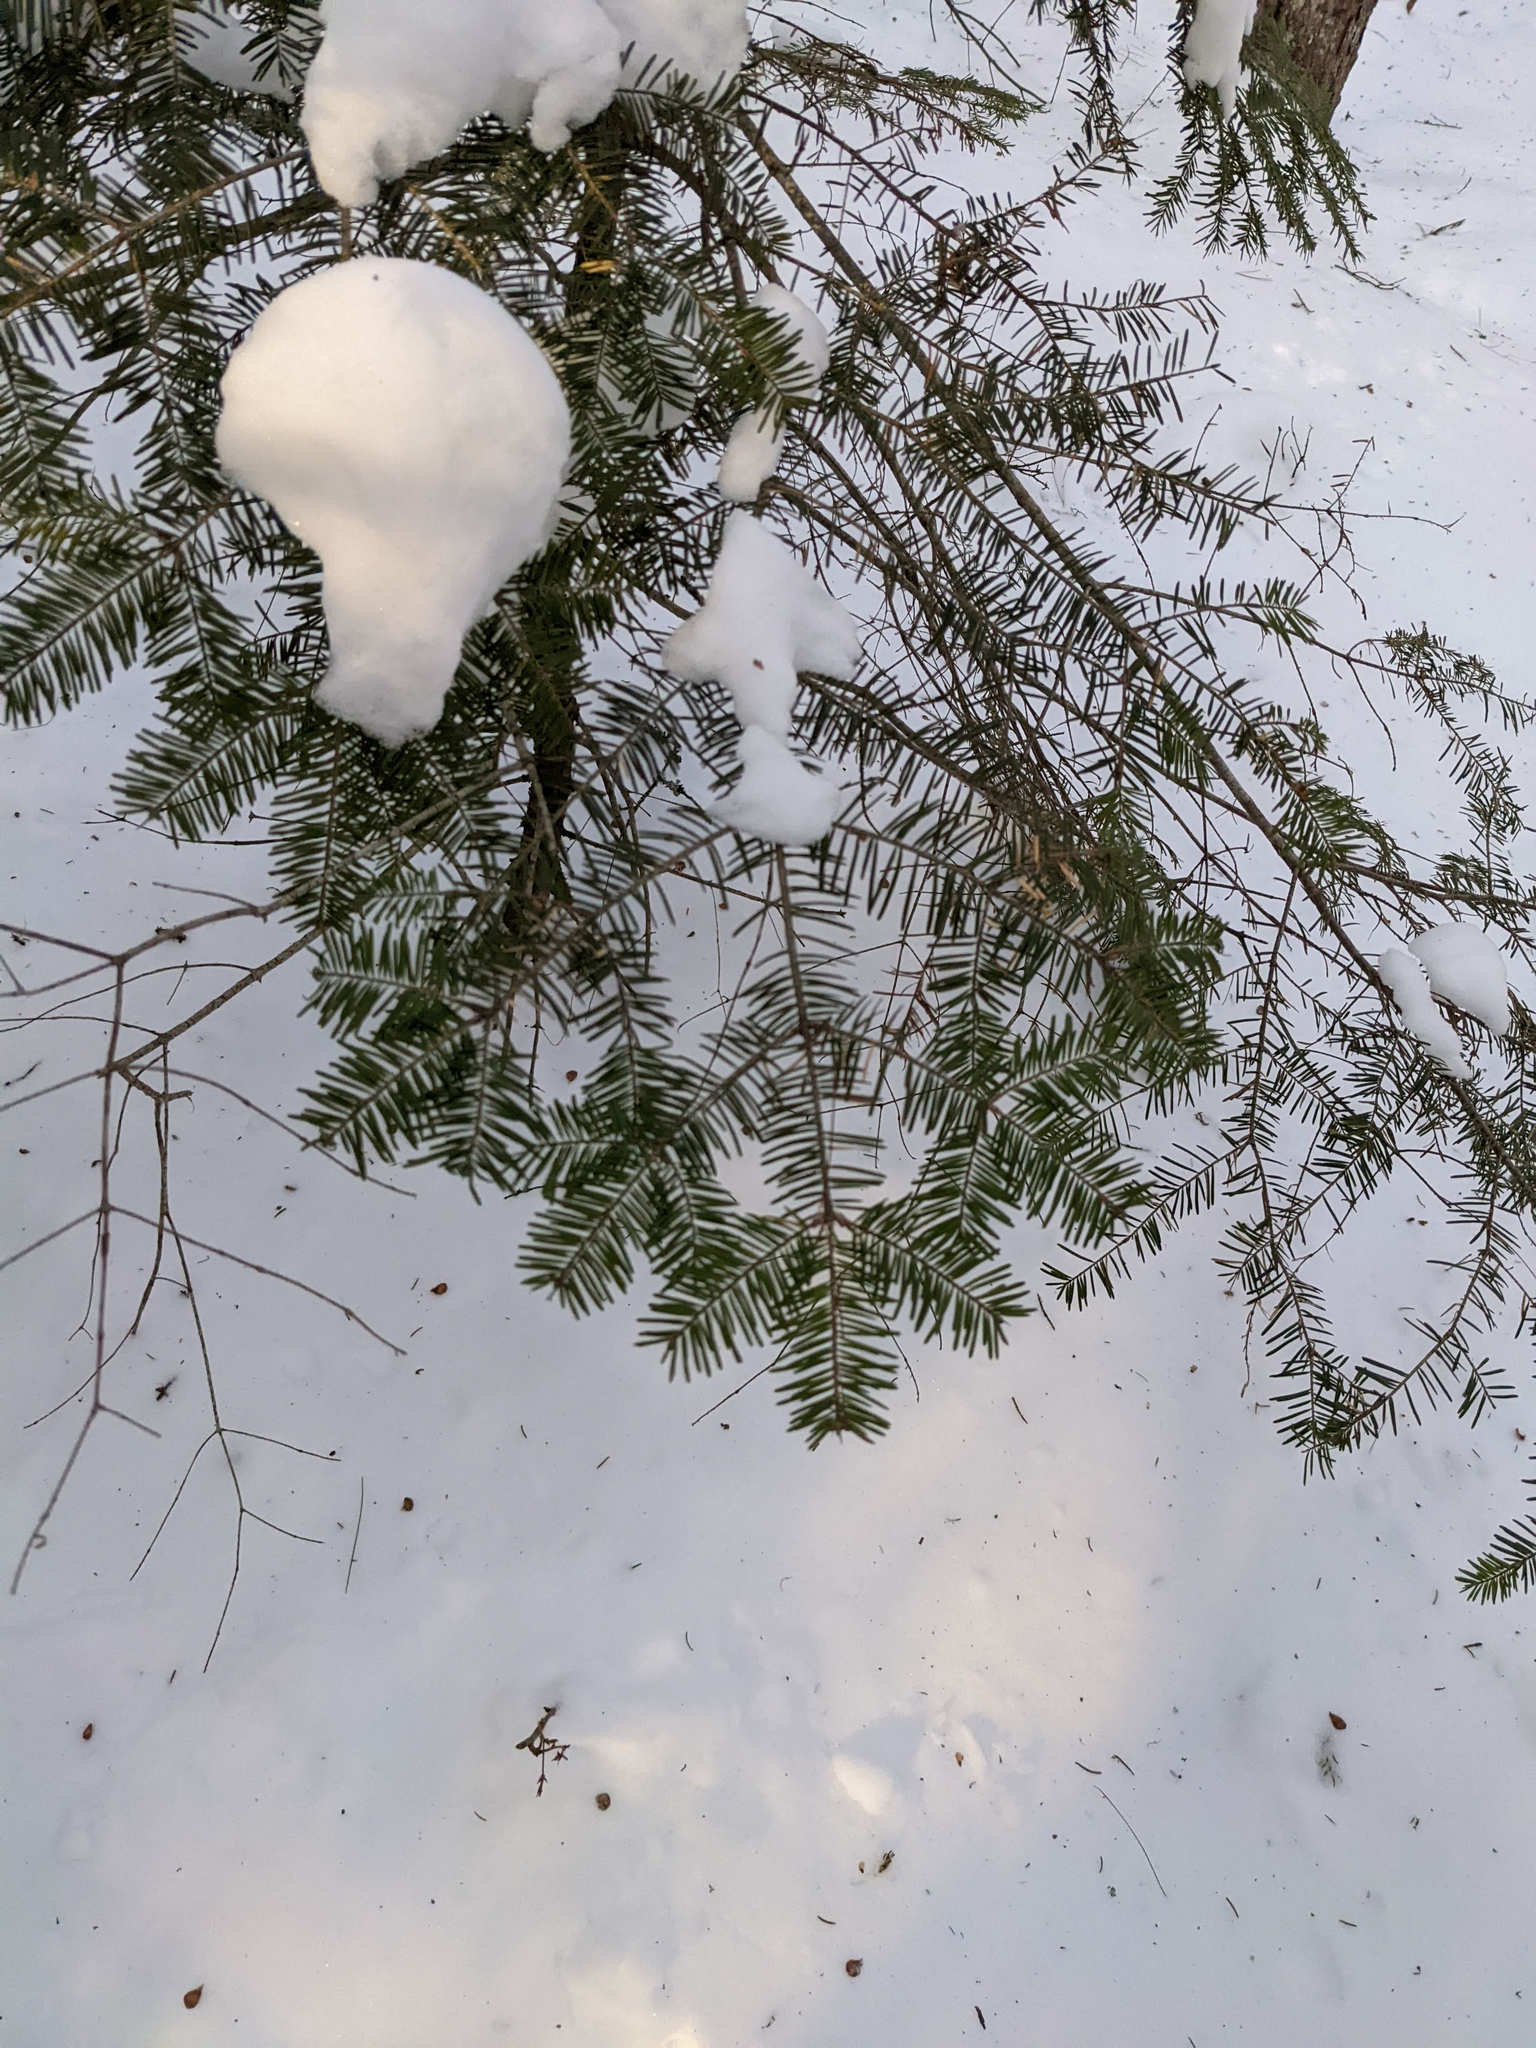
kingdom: Plantae
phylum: Tracheophyta
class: Pinopsida
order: Pinales
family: Pinaceae
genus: Abies
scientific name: Abies balsamea
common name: Balsam fir
